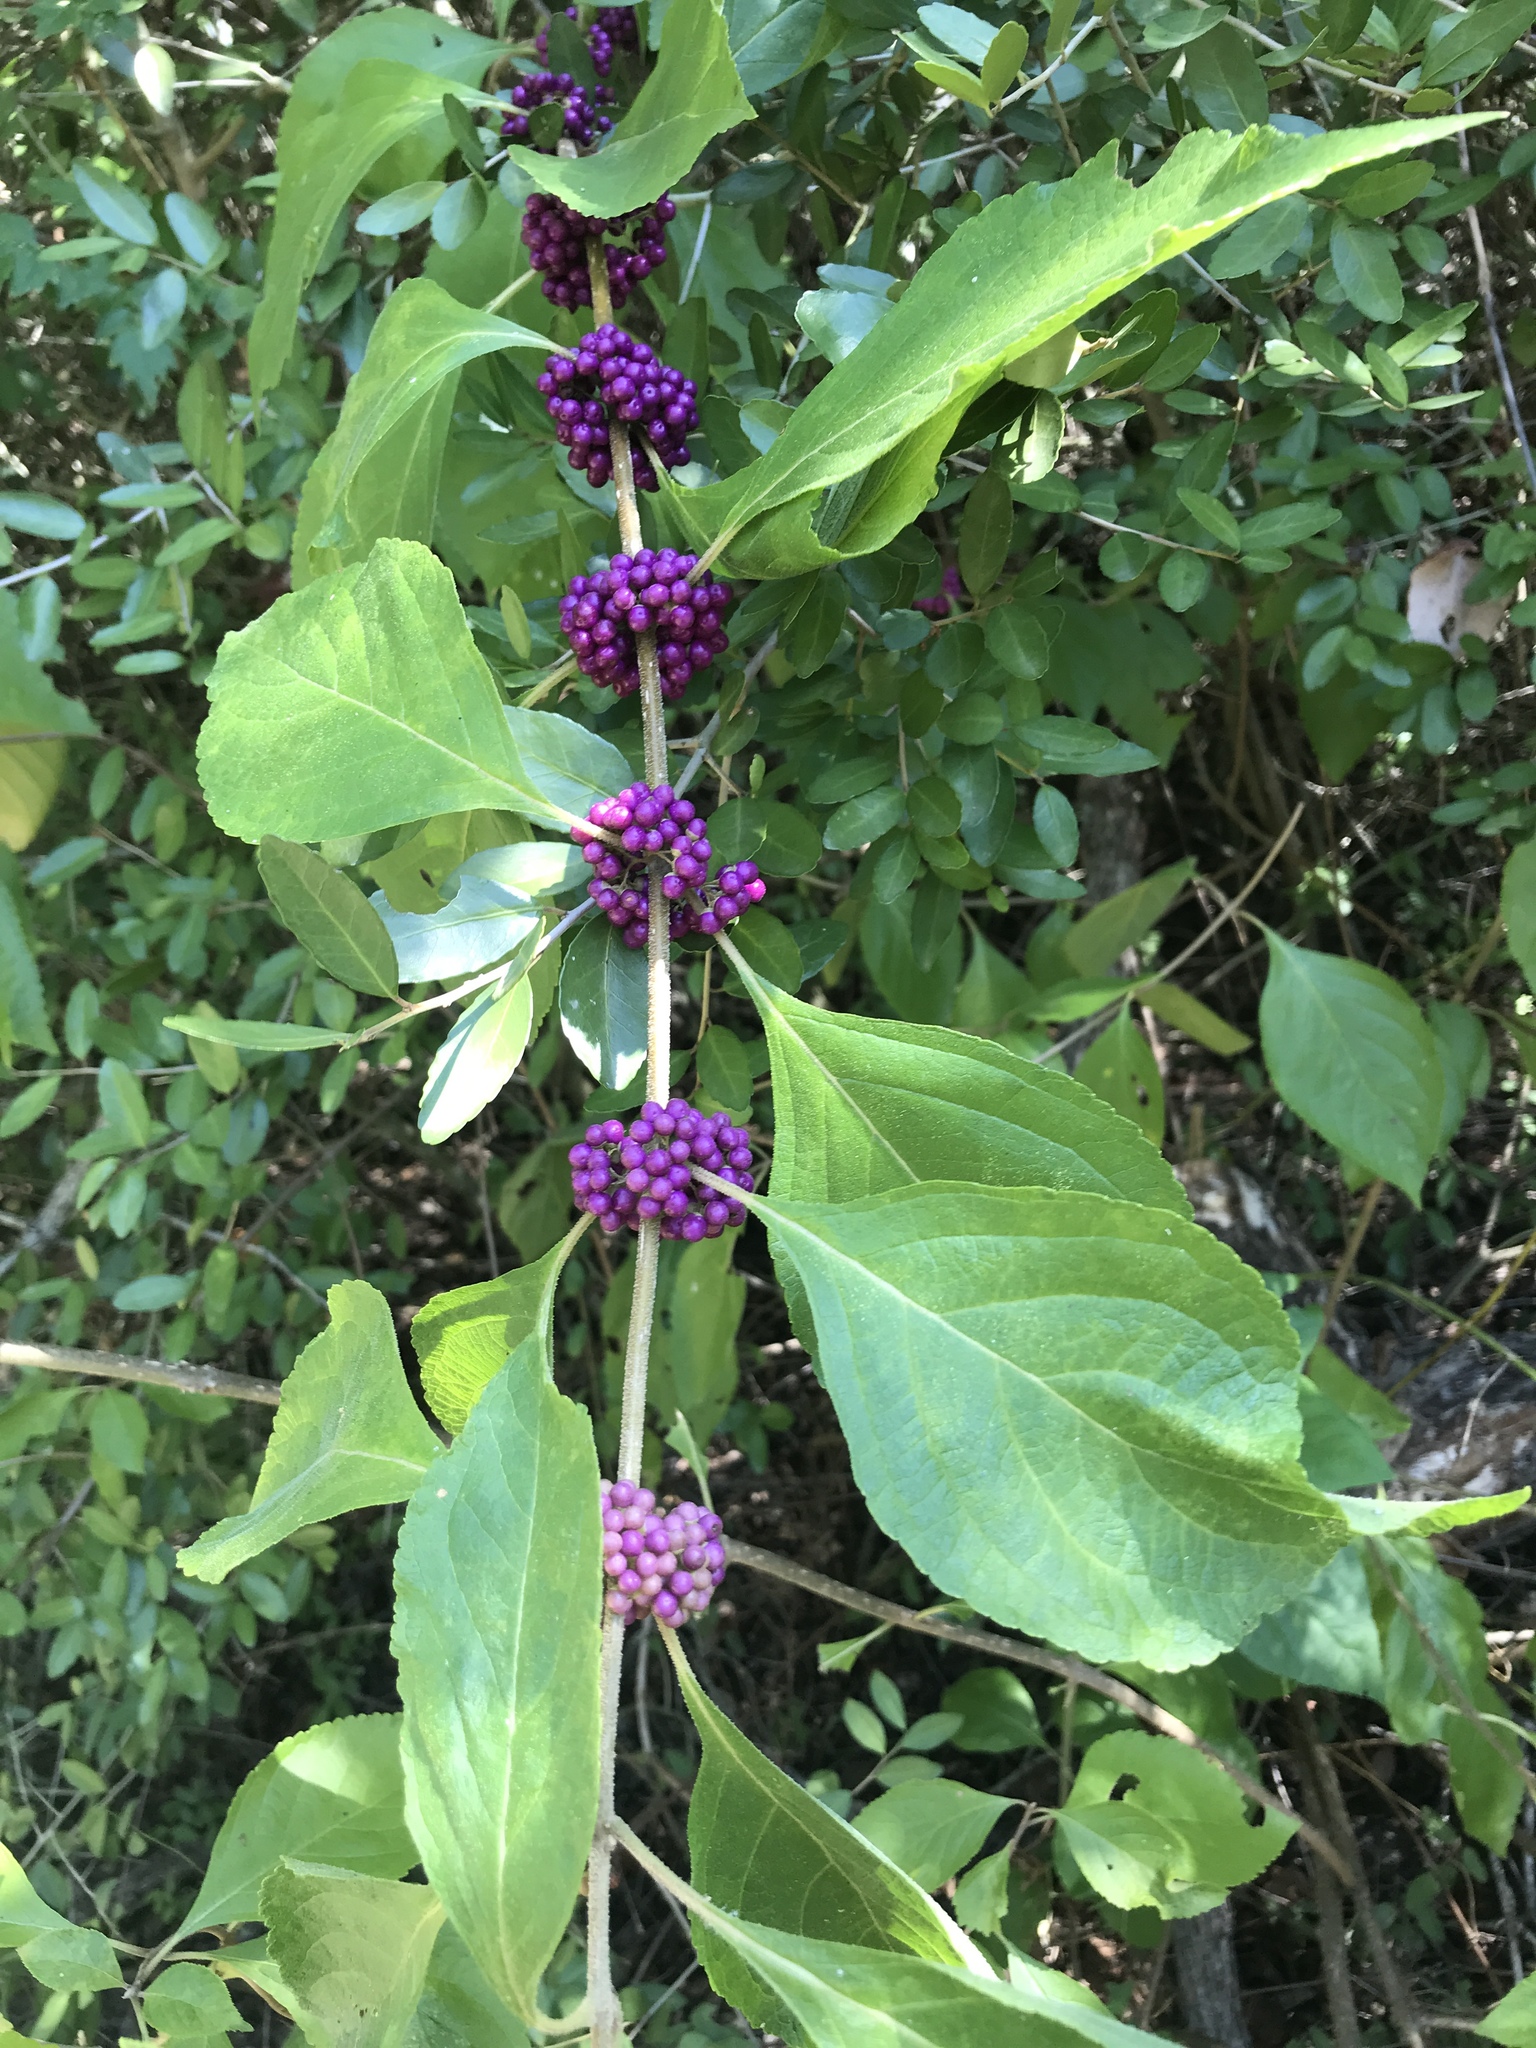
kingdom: Plantae
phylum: Tracheophyta
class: Magnoliopsida
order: Lamiales
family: Lamiaceae
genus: Callicarpa
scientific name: Callicarpa americana
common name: American beautyberry
